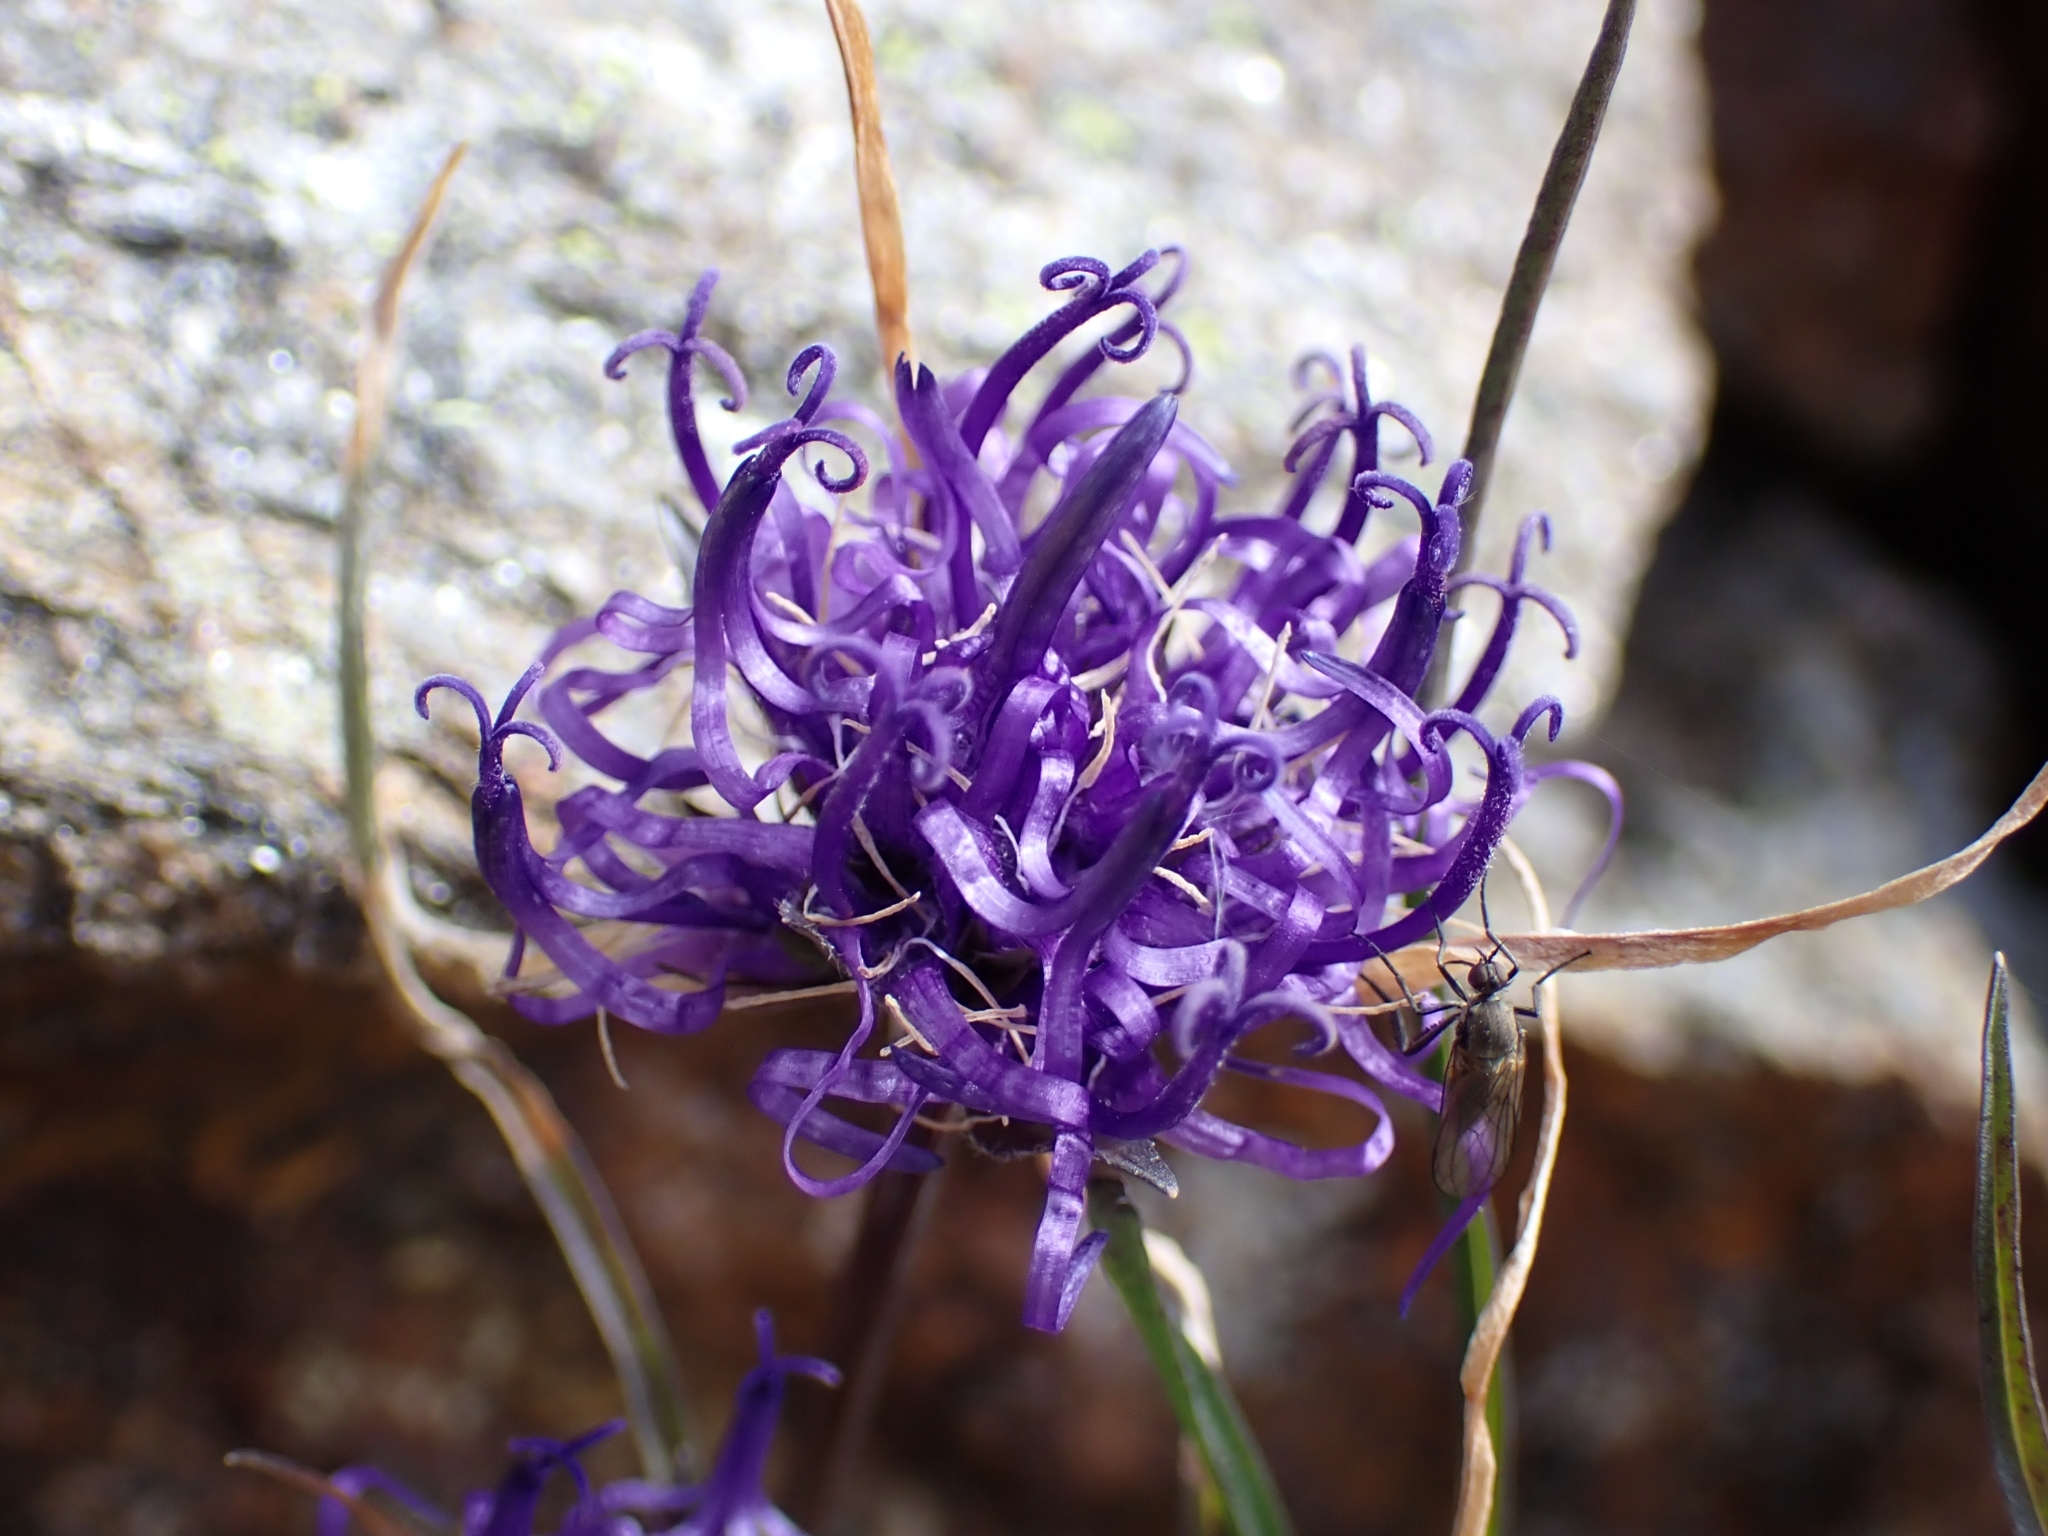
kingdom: Plantae
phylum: Tracheophyta
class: Magnoliopsida
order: Asterales
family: Campanulaceae
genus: Phyteuma
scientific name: Phyteuma hemisphaericum
